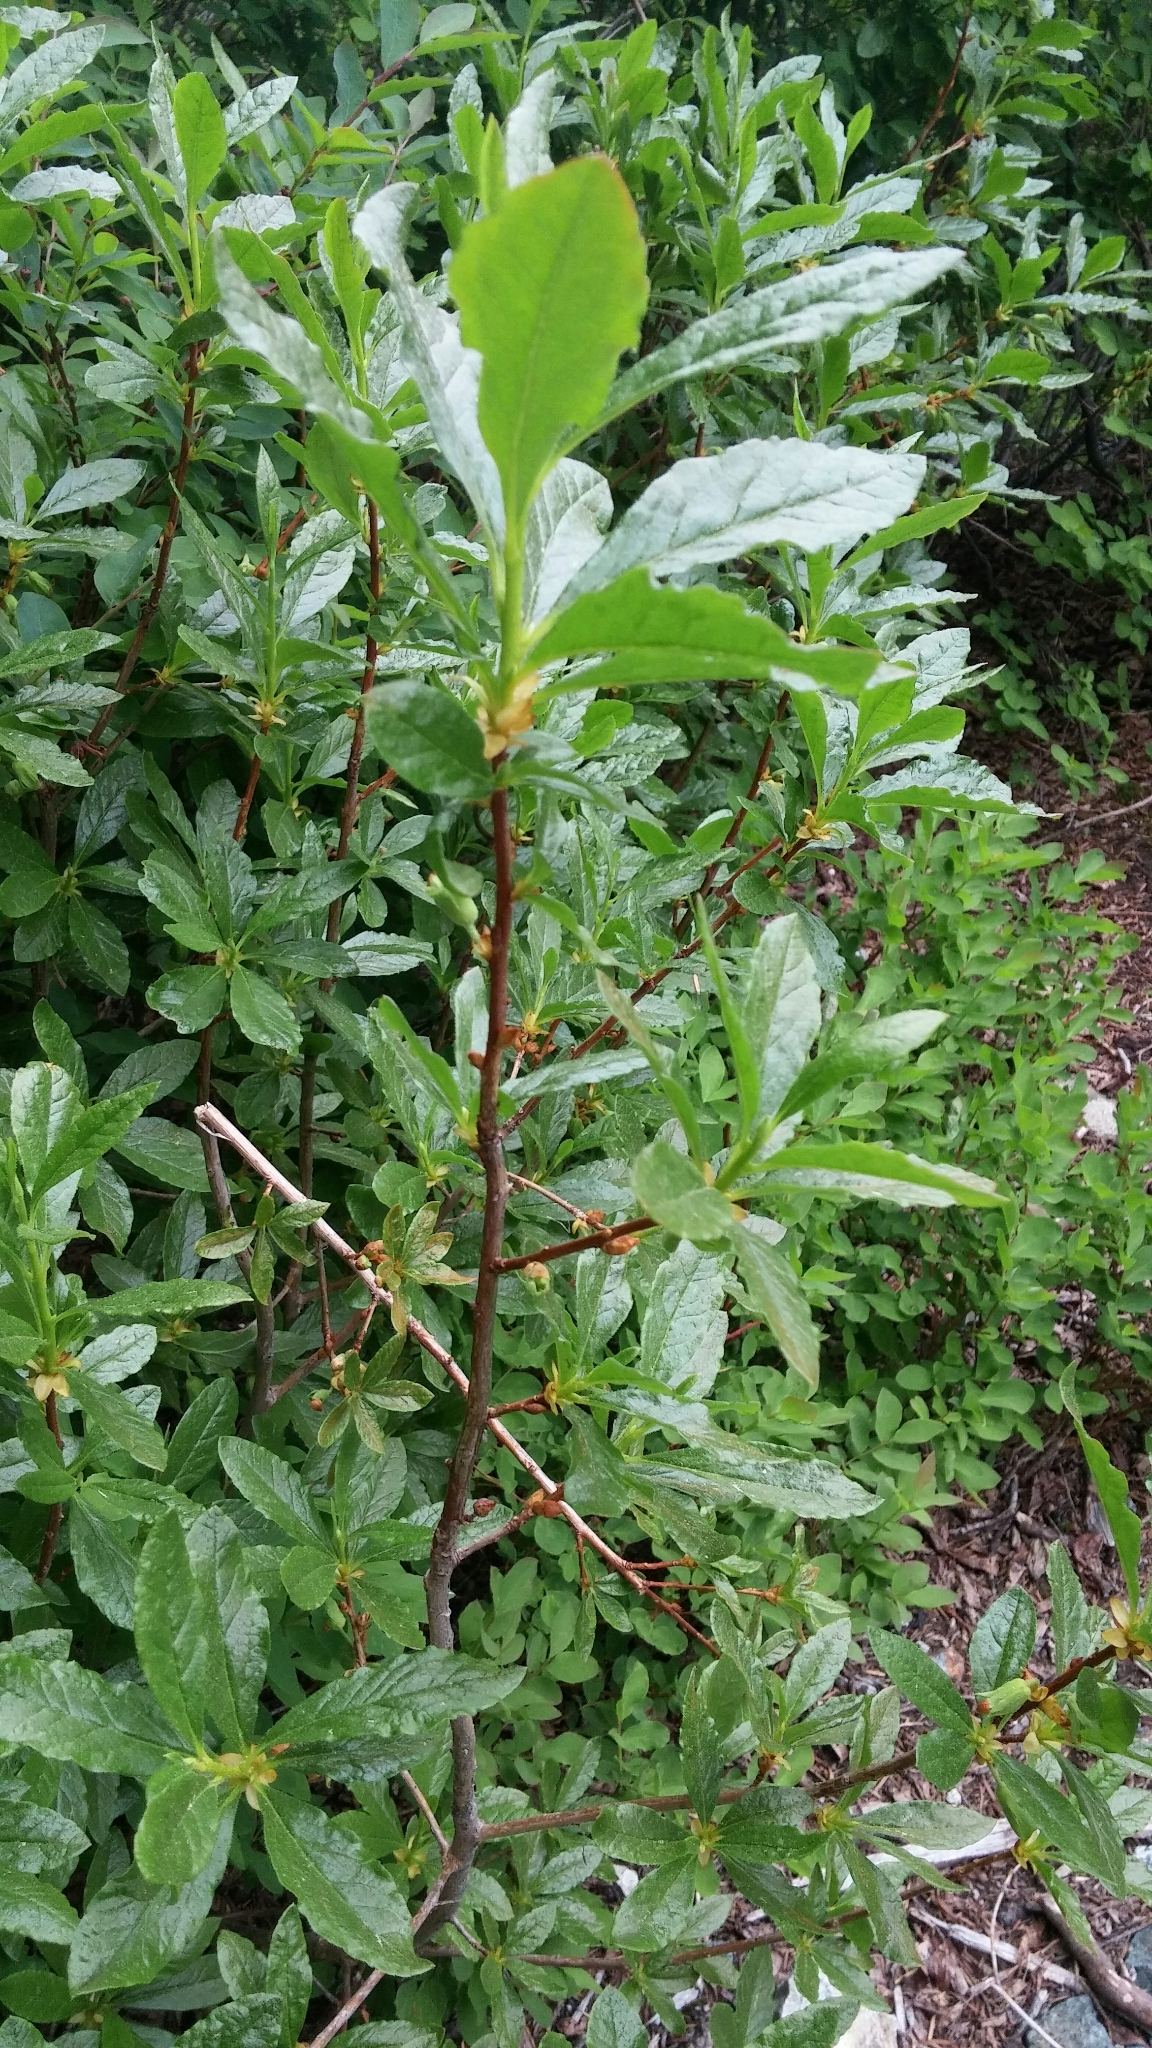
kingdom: Plantae
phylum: Tracheophyta
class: Magnoliopsida
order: Ericales
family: Ericaceae
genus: Rhododendron
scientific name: Rhododendron albiflorum
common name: White rhododendron
